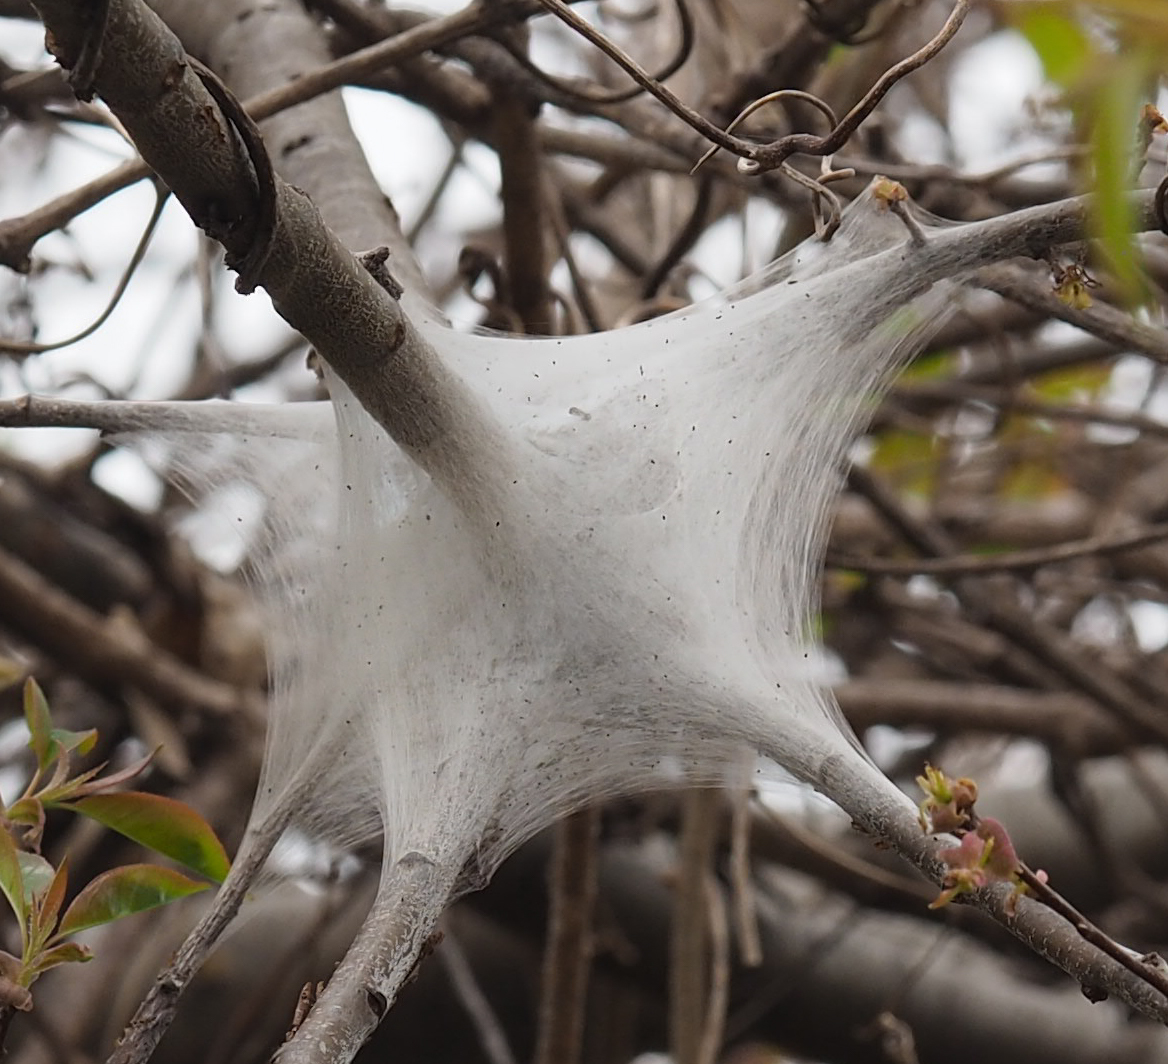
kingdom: Animalia
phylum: Arthropoda
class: Insecta
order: Lepidoptera
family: Lasiocampidae
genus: Malacosoma
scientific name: Malacosoma americana
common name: Eastern tent caterpillar moth
